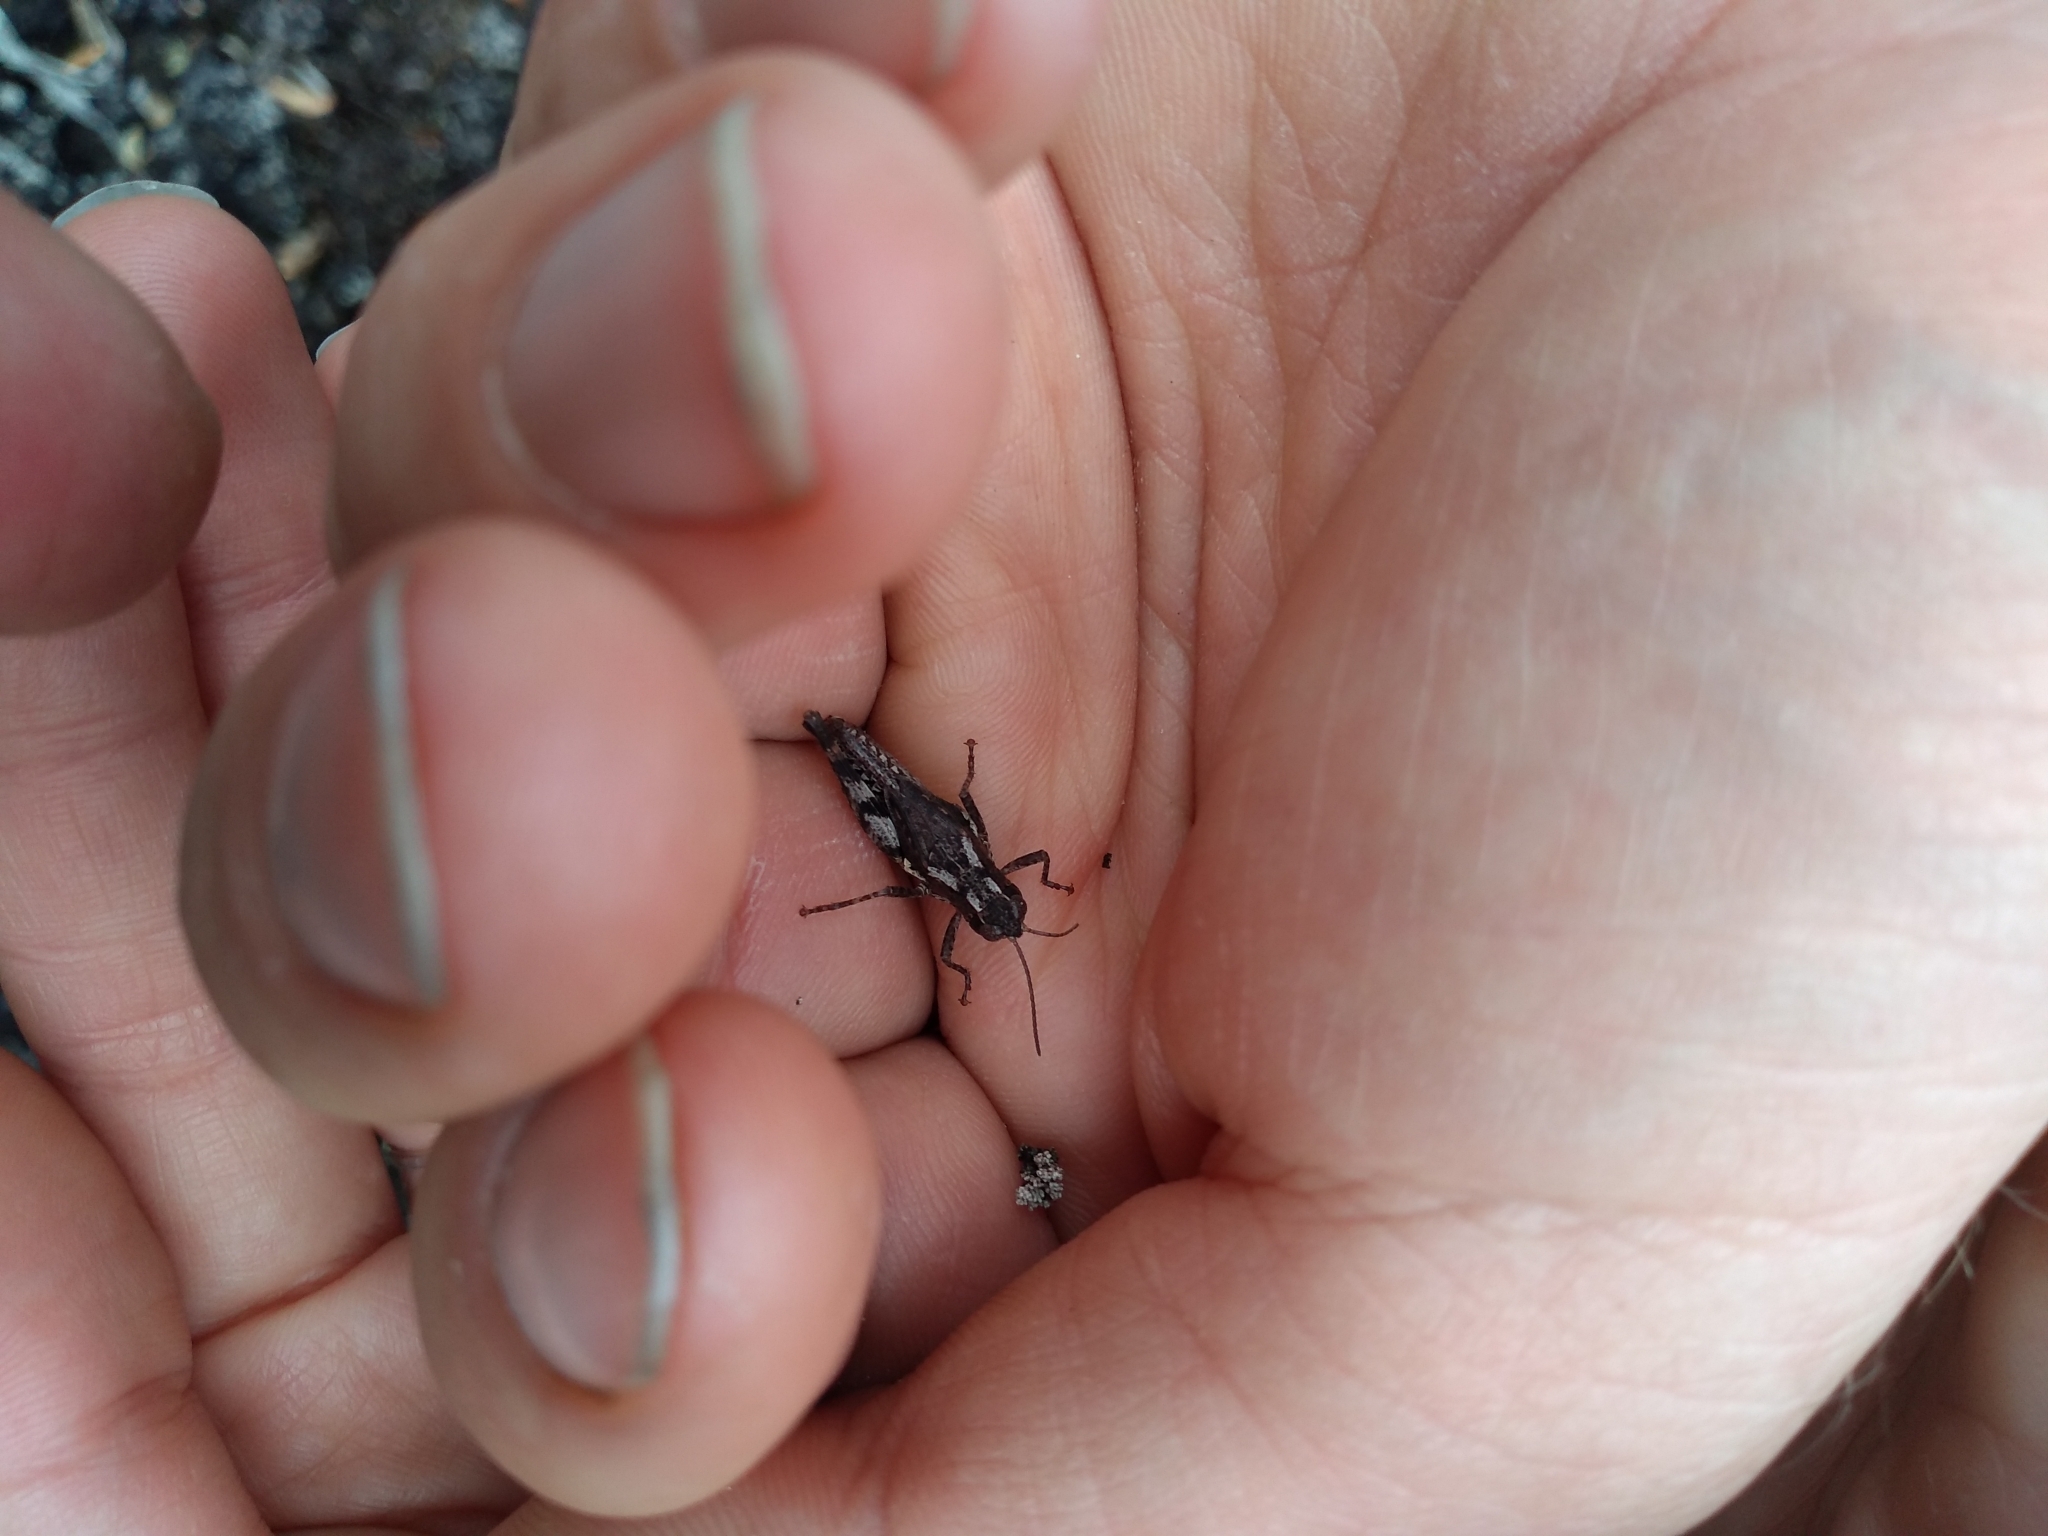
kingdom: Animalia
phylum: Arthropoda
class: Insecta
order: Orthoptera
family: Acrididae
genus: Phaulacridium
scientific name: Phaulacridium marginale
